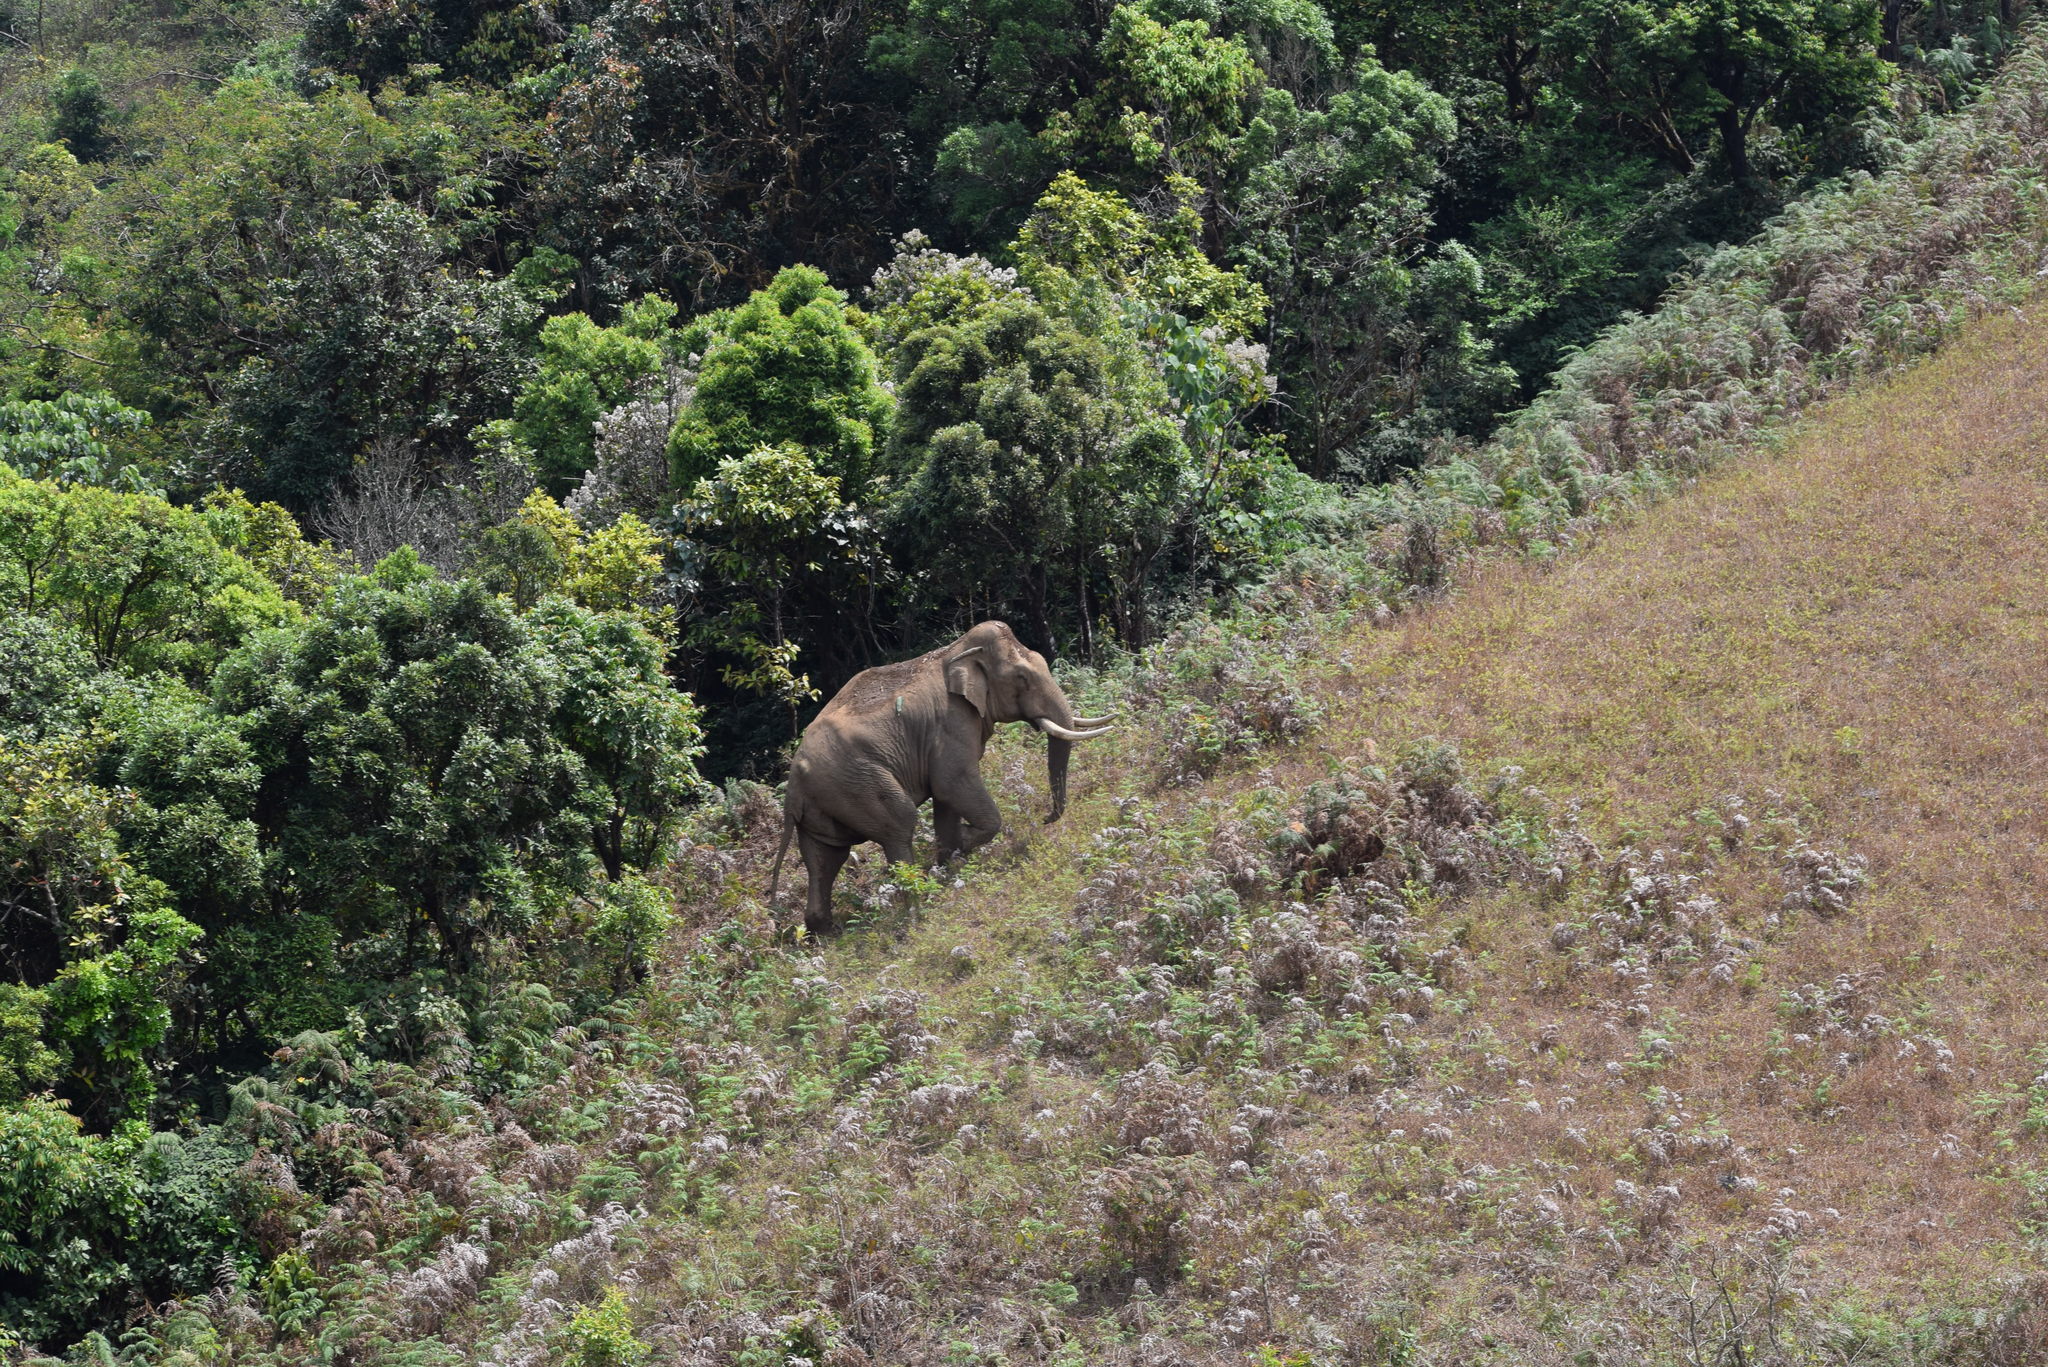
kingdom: Animalia
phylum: Chordata
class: Mammalia
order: Proboscidea
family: Elephantidae
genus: Elephas
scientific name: Elephas maximus
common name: Asian elephant
